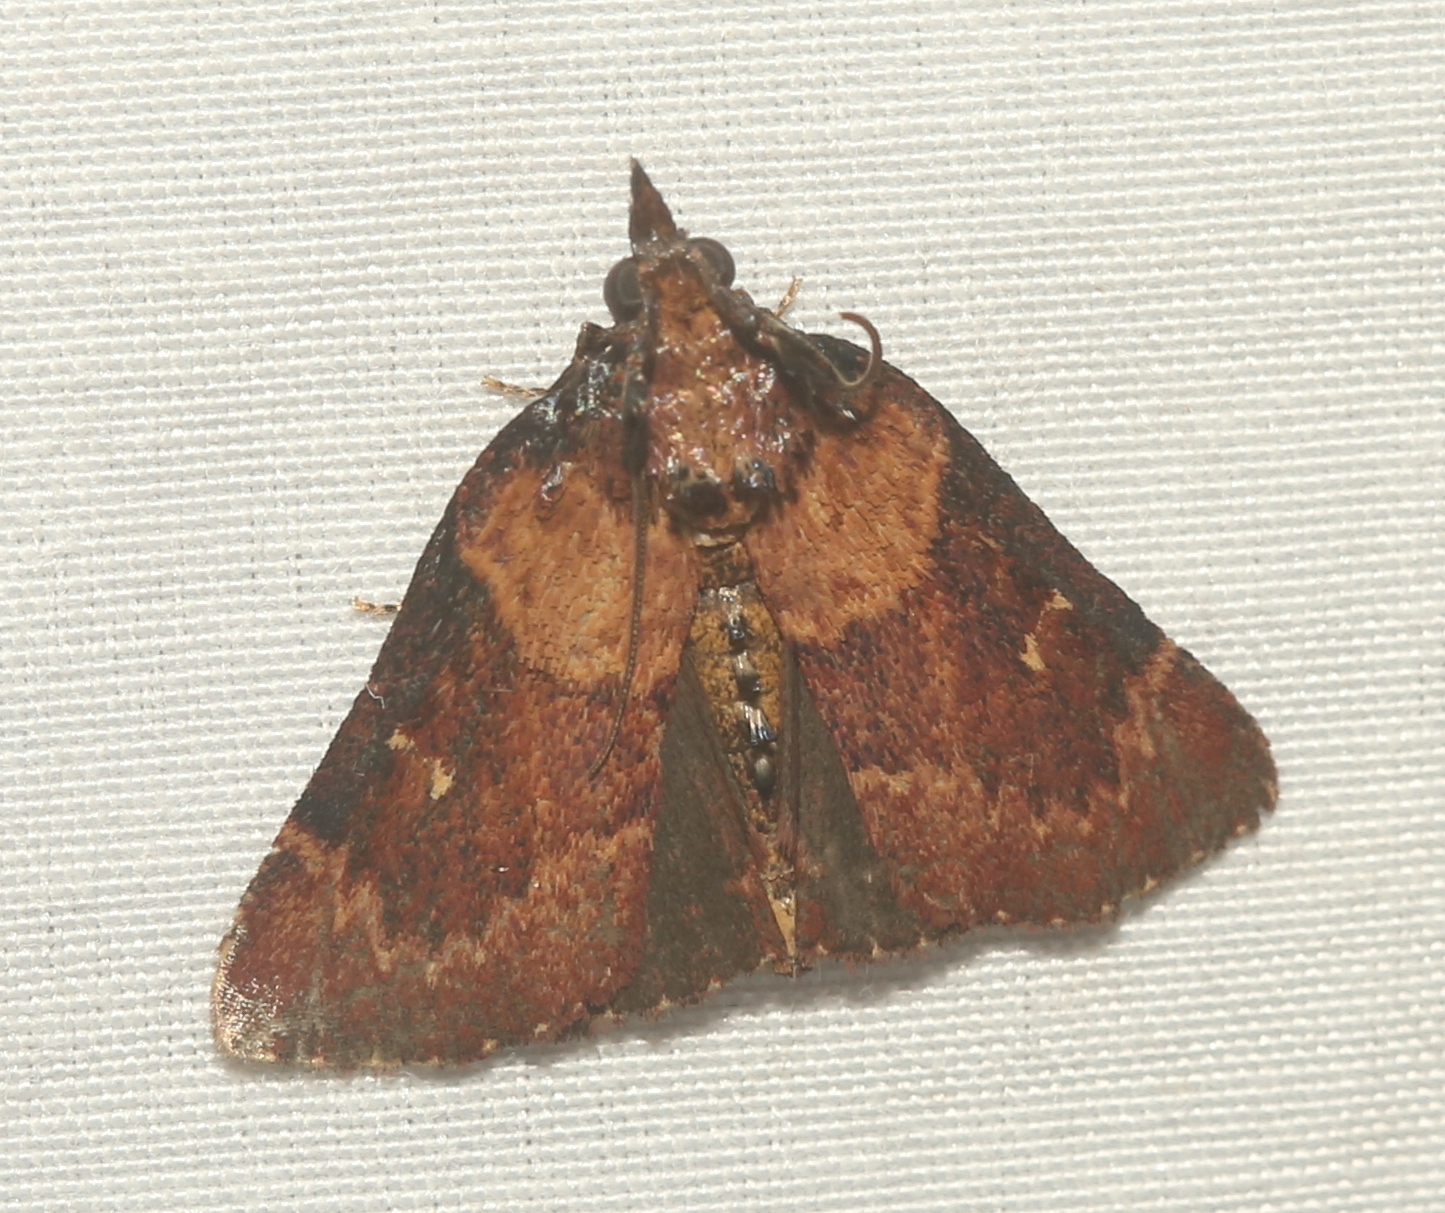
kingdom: Animalia
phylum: Arthropoda
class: Insecta
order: Lepidoptera
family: Pyralidae
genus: Omphalocera
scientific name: Omphalocera munroei
